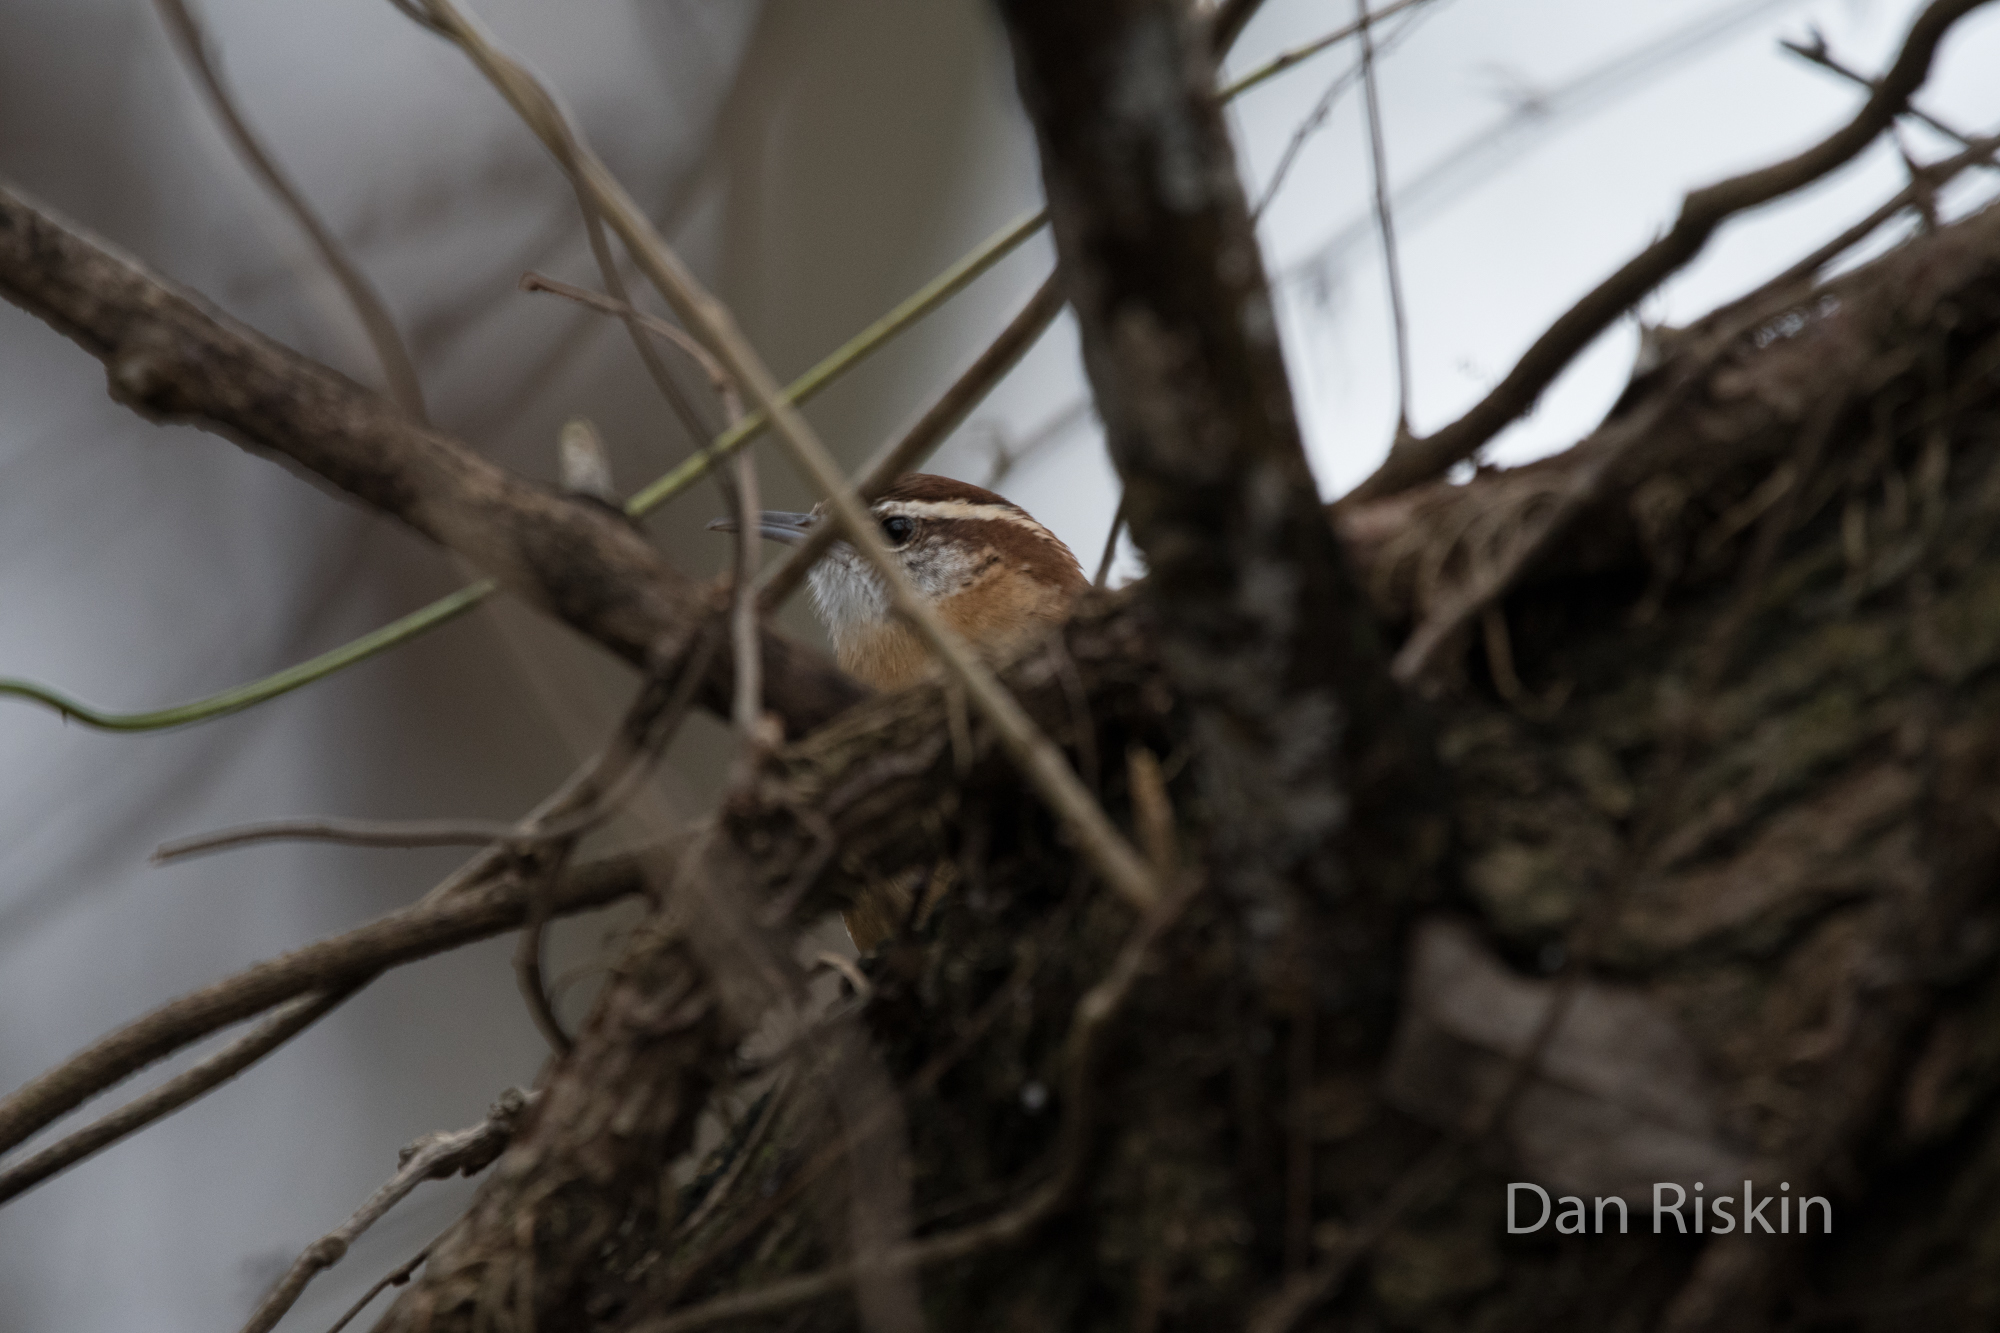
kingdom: Animalia
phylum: Chordata
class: Aves
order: Passeriformes
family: Troglodytidae
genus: Thryothorus
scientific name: Thryothorus ludovicianus
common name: Carolina wren
